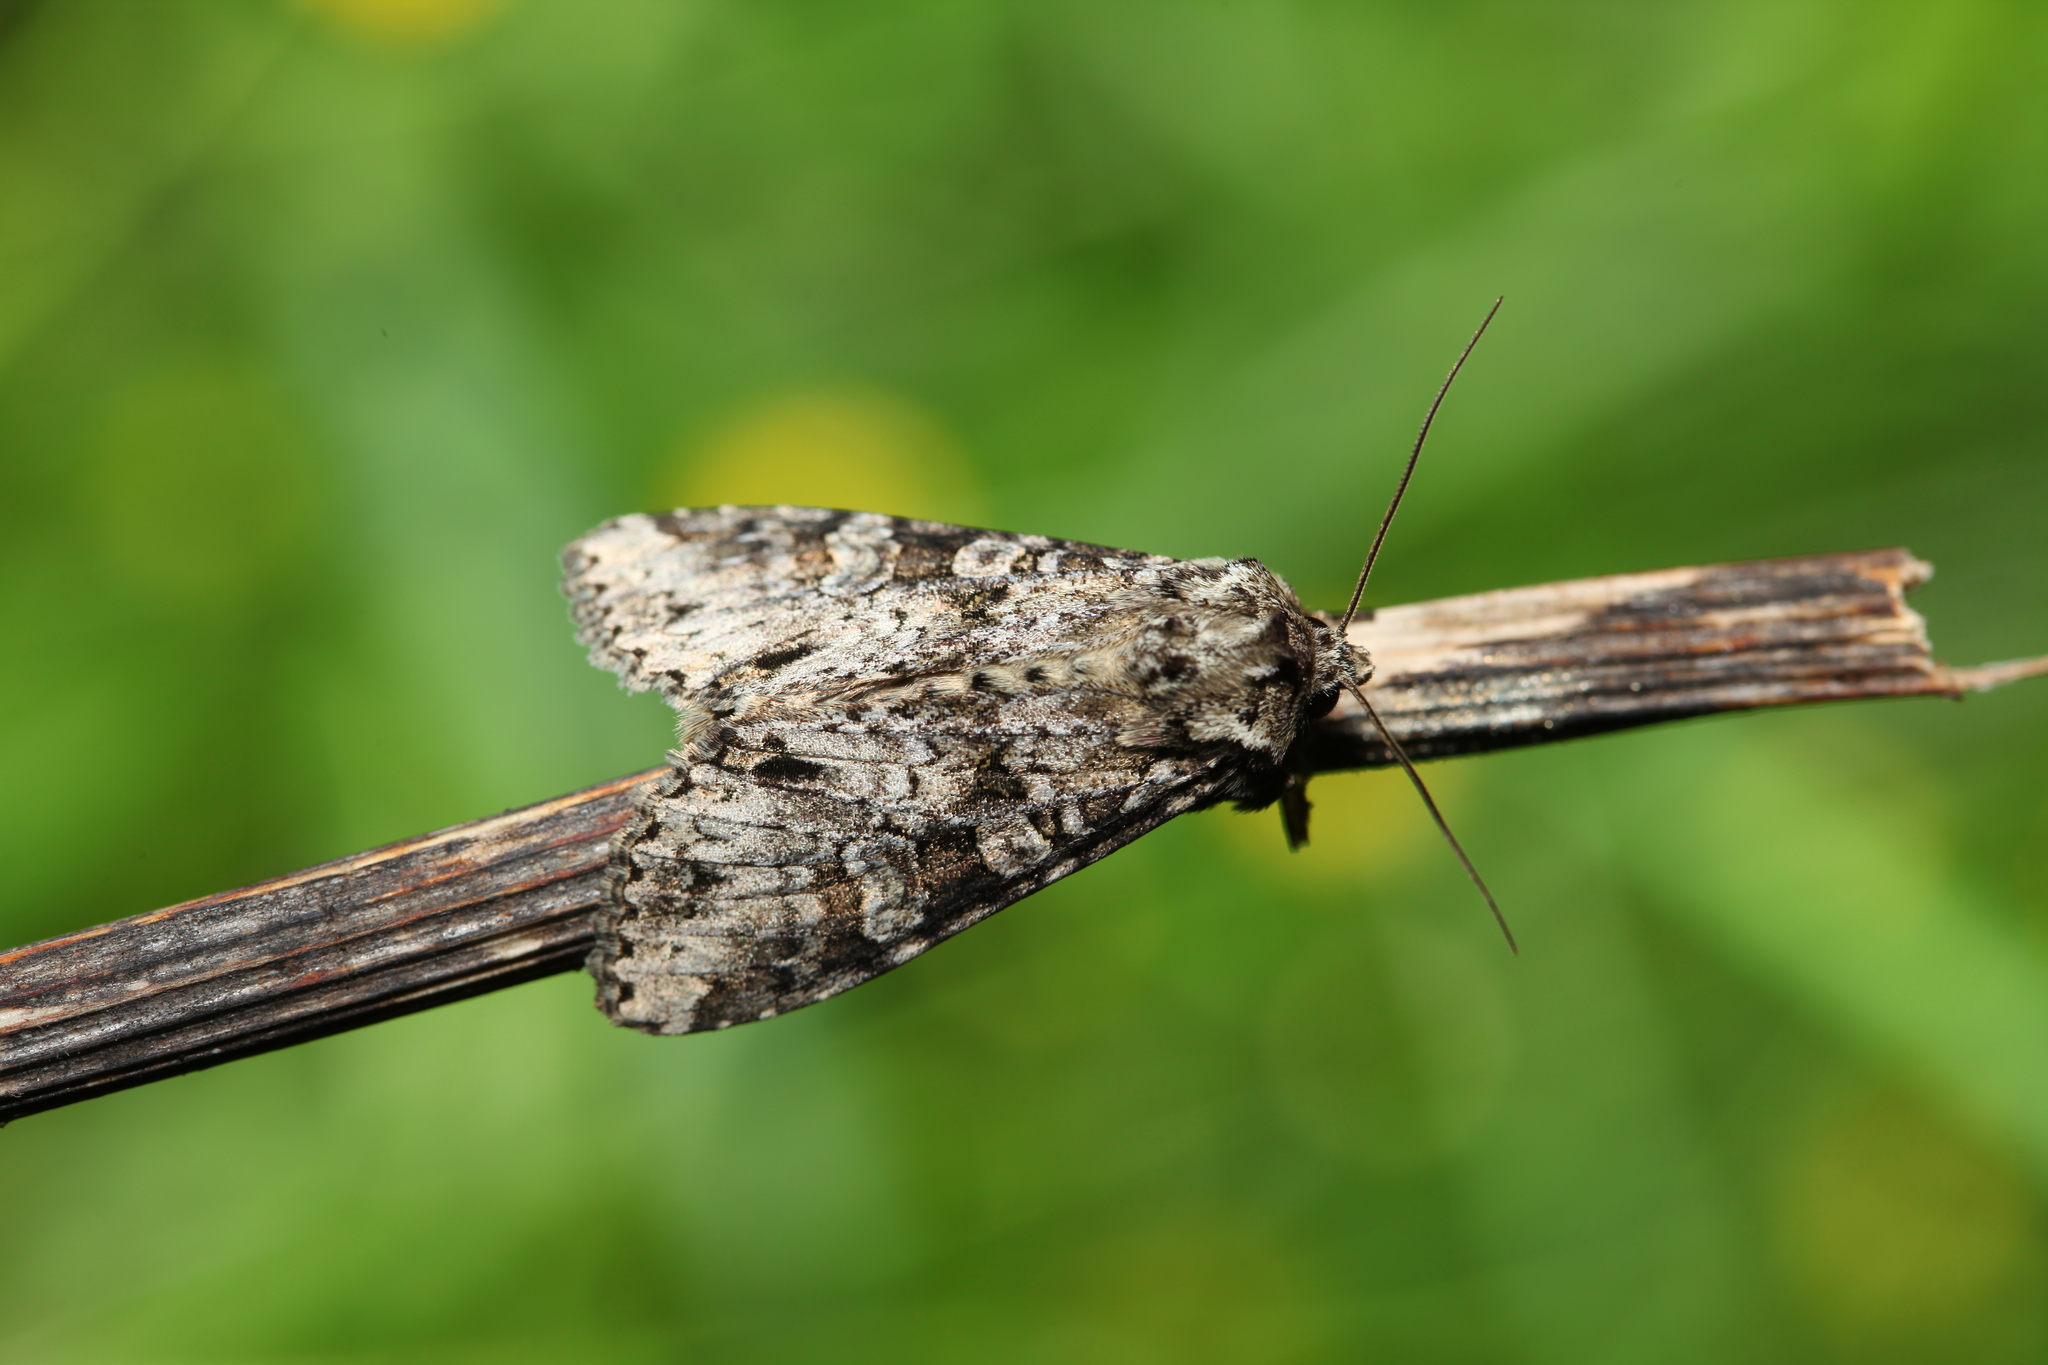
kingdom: Animalia
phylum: Arthropoda
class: Insecta
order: Lepidoptera
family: Noctuidae
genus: Polia
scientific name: Polia nebulosa
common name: Grey arches
